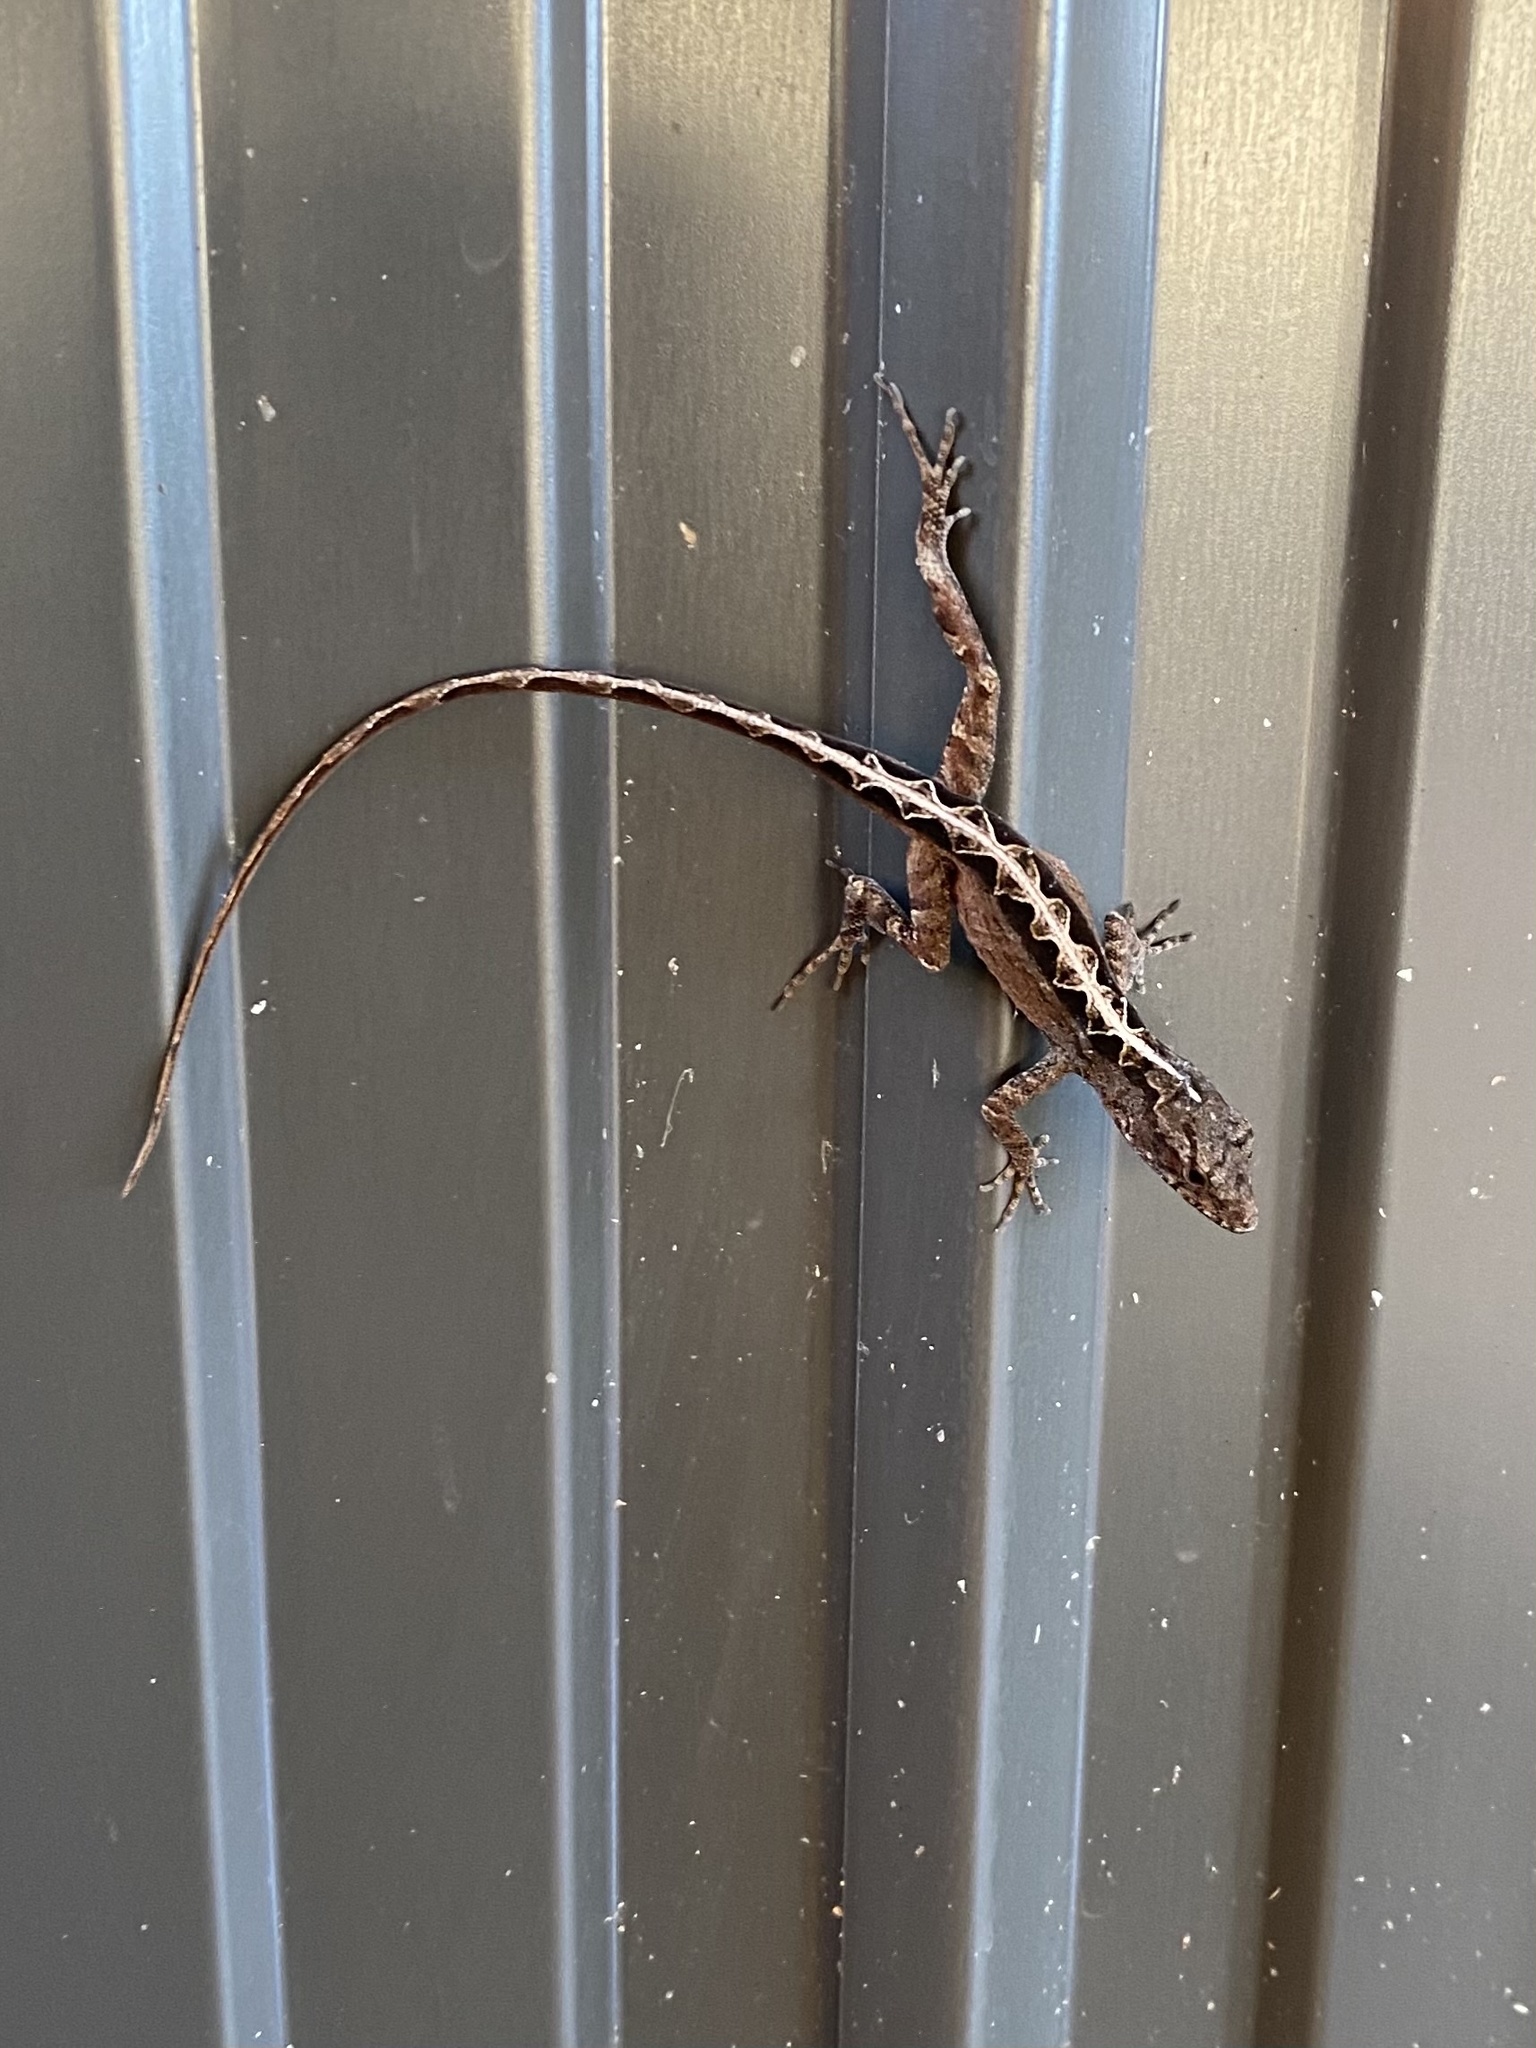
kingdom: Animalia
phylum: Chordata
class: Squamata
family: Dactyloidae
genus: Anolis
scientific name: Anolis sagrei
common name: Brown anole
